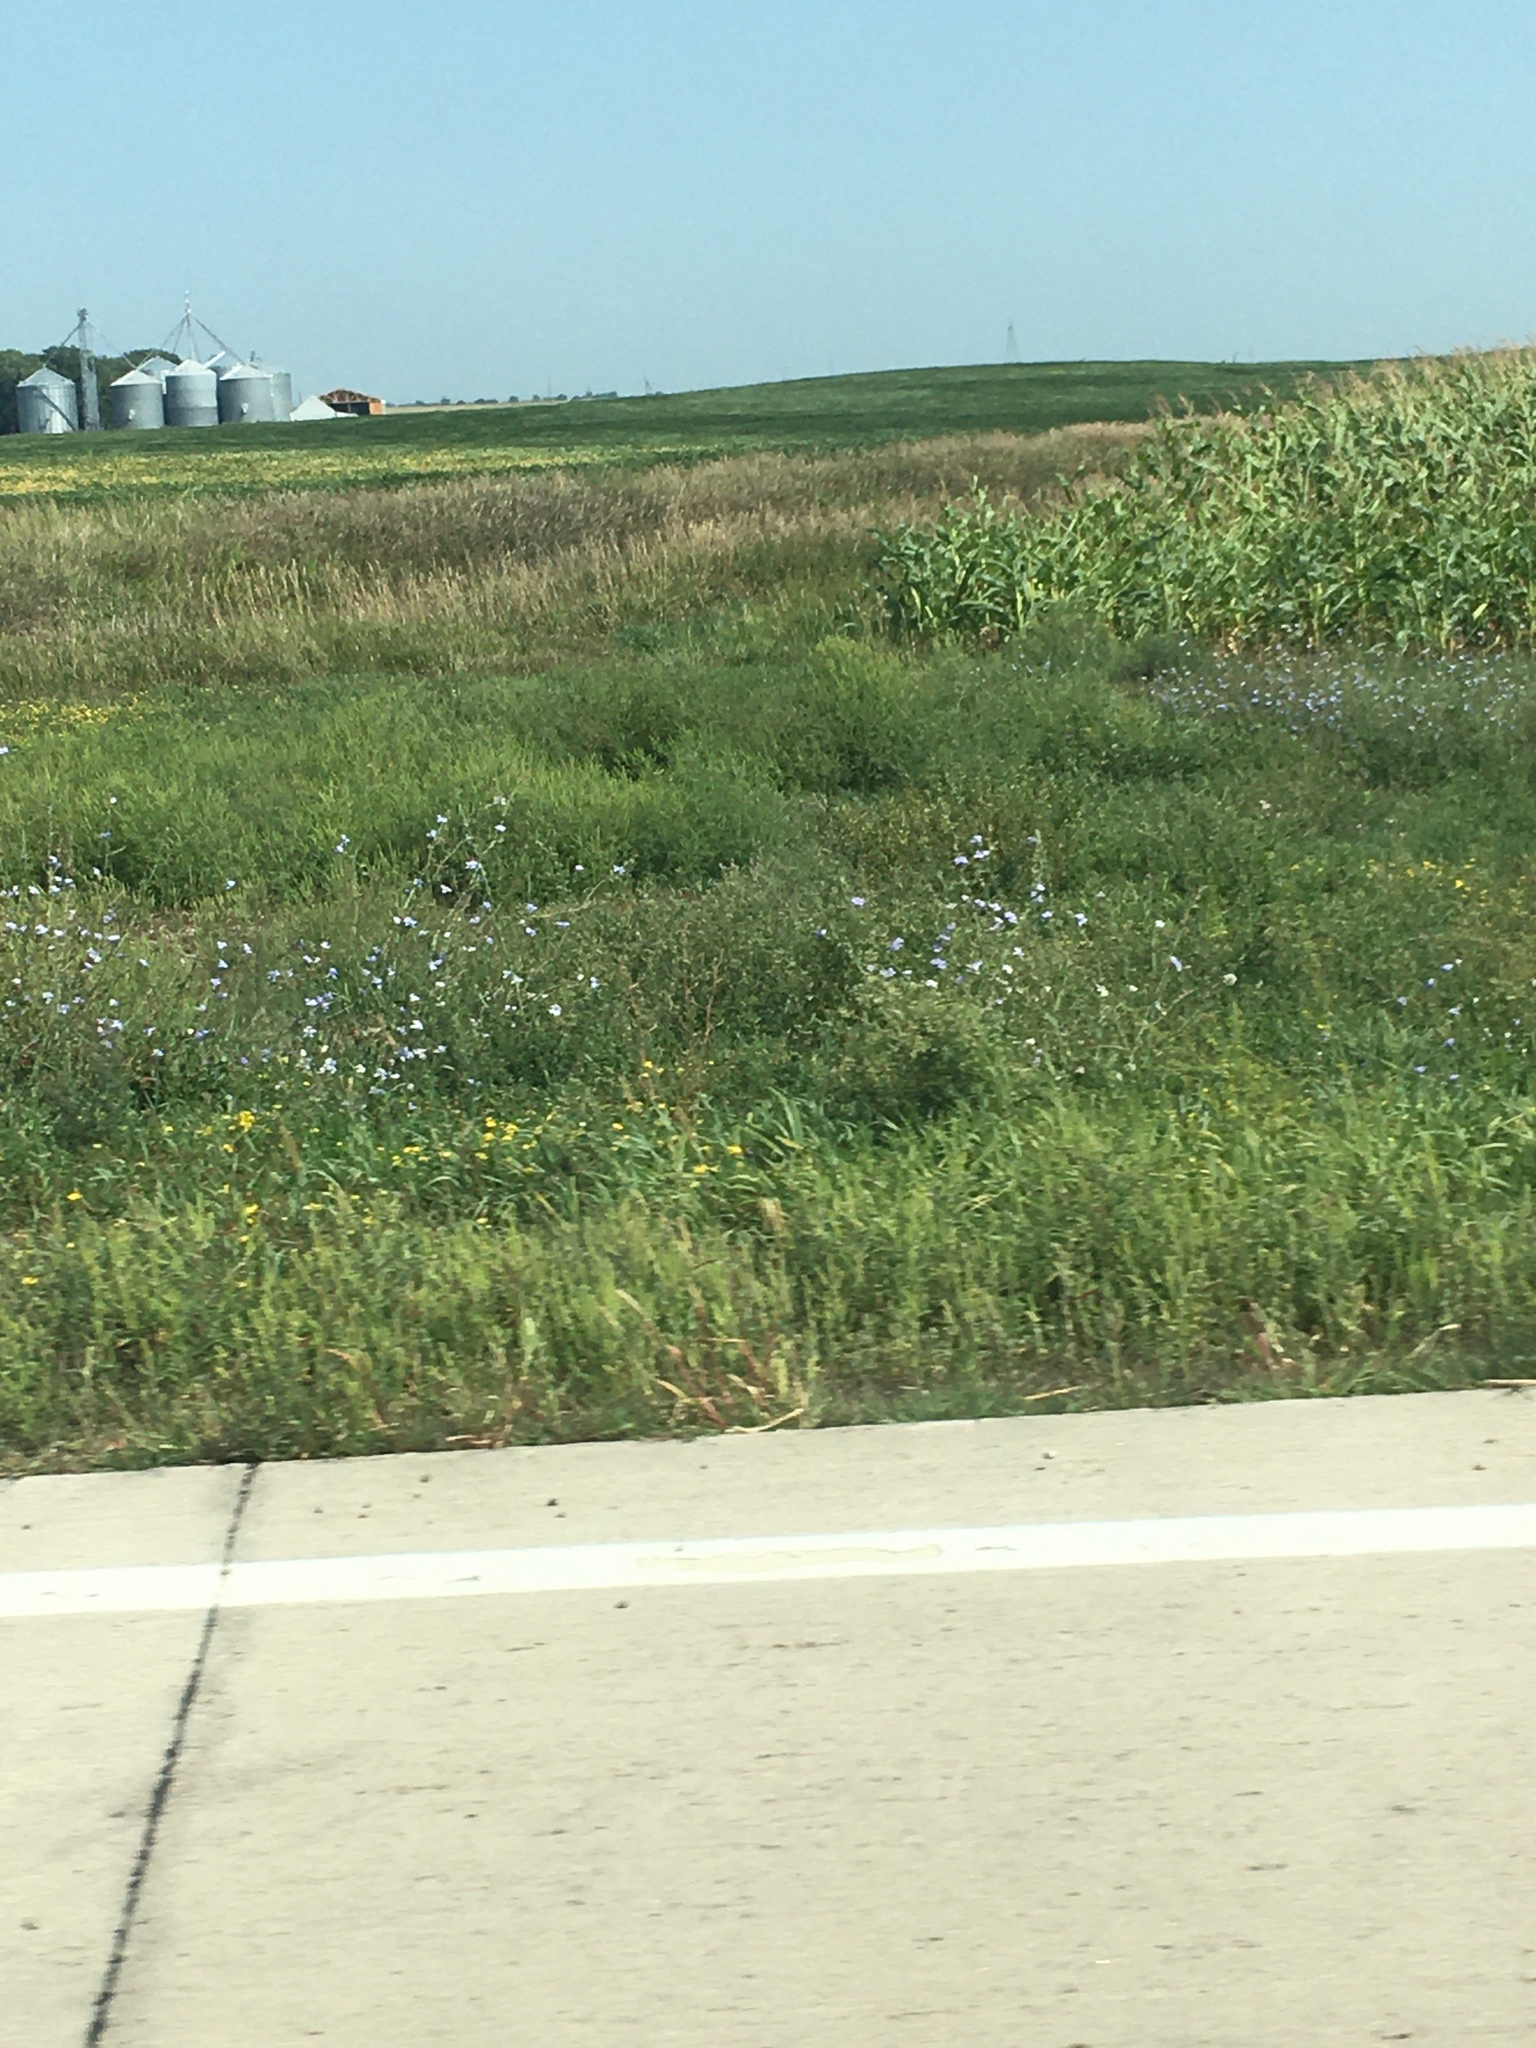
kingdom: Plantae
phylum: Tracheophyta
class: Magnoliopsida
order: Asterales
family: Asteraceae
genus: Cichorium
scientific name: Cichorium intybus
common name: Chicory
